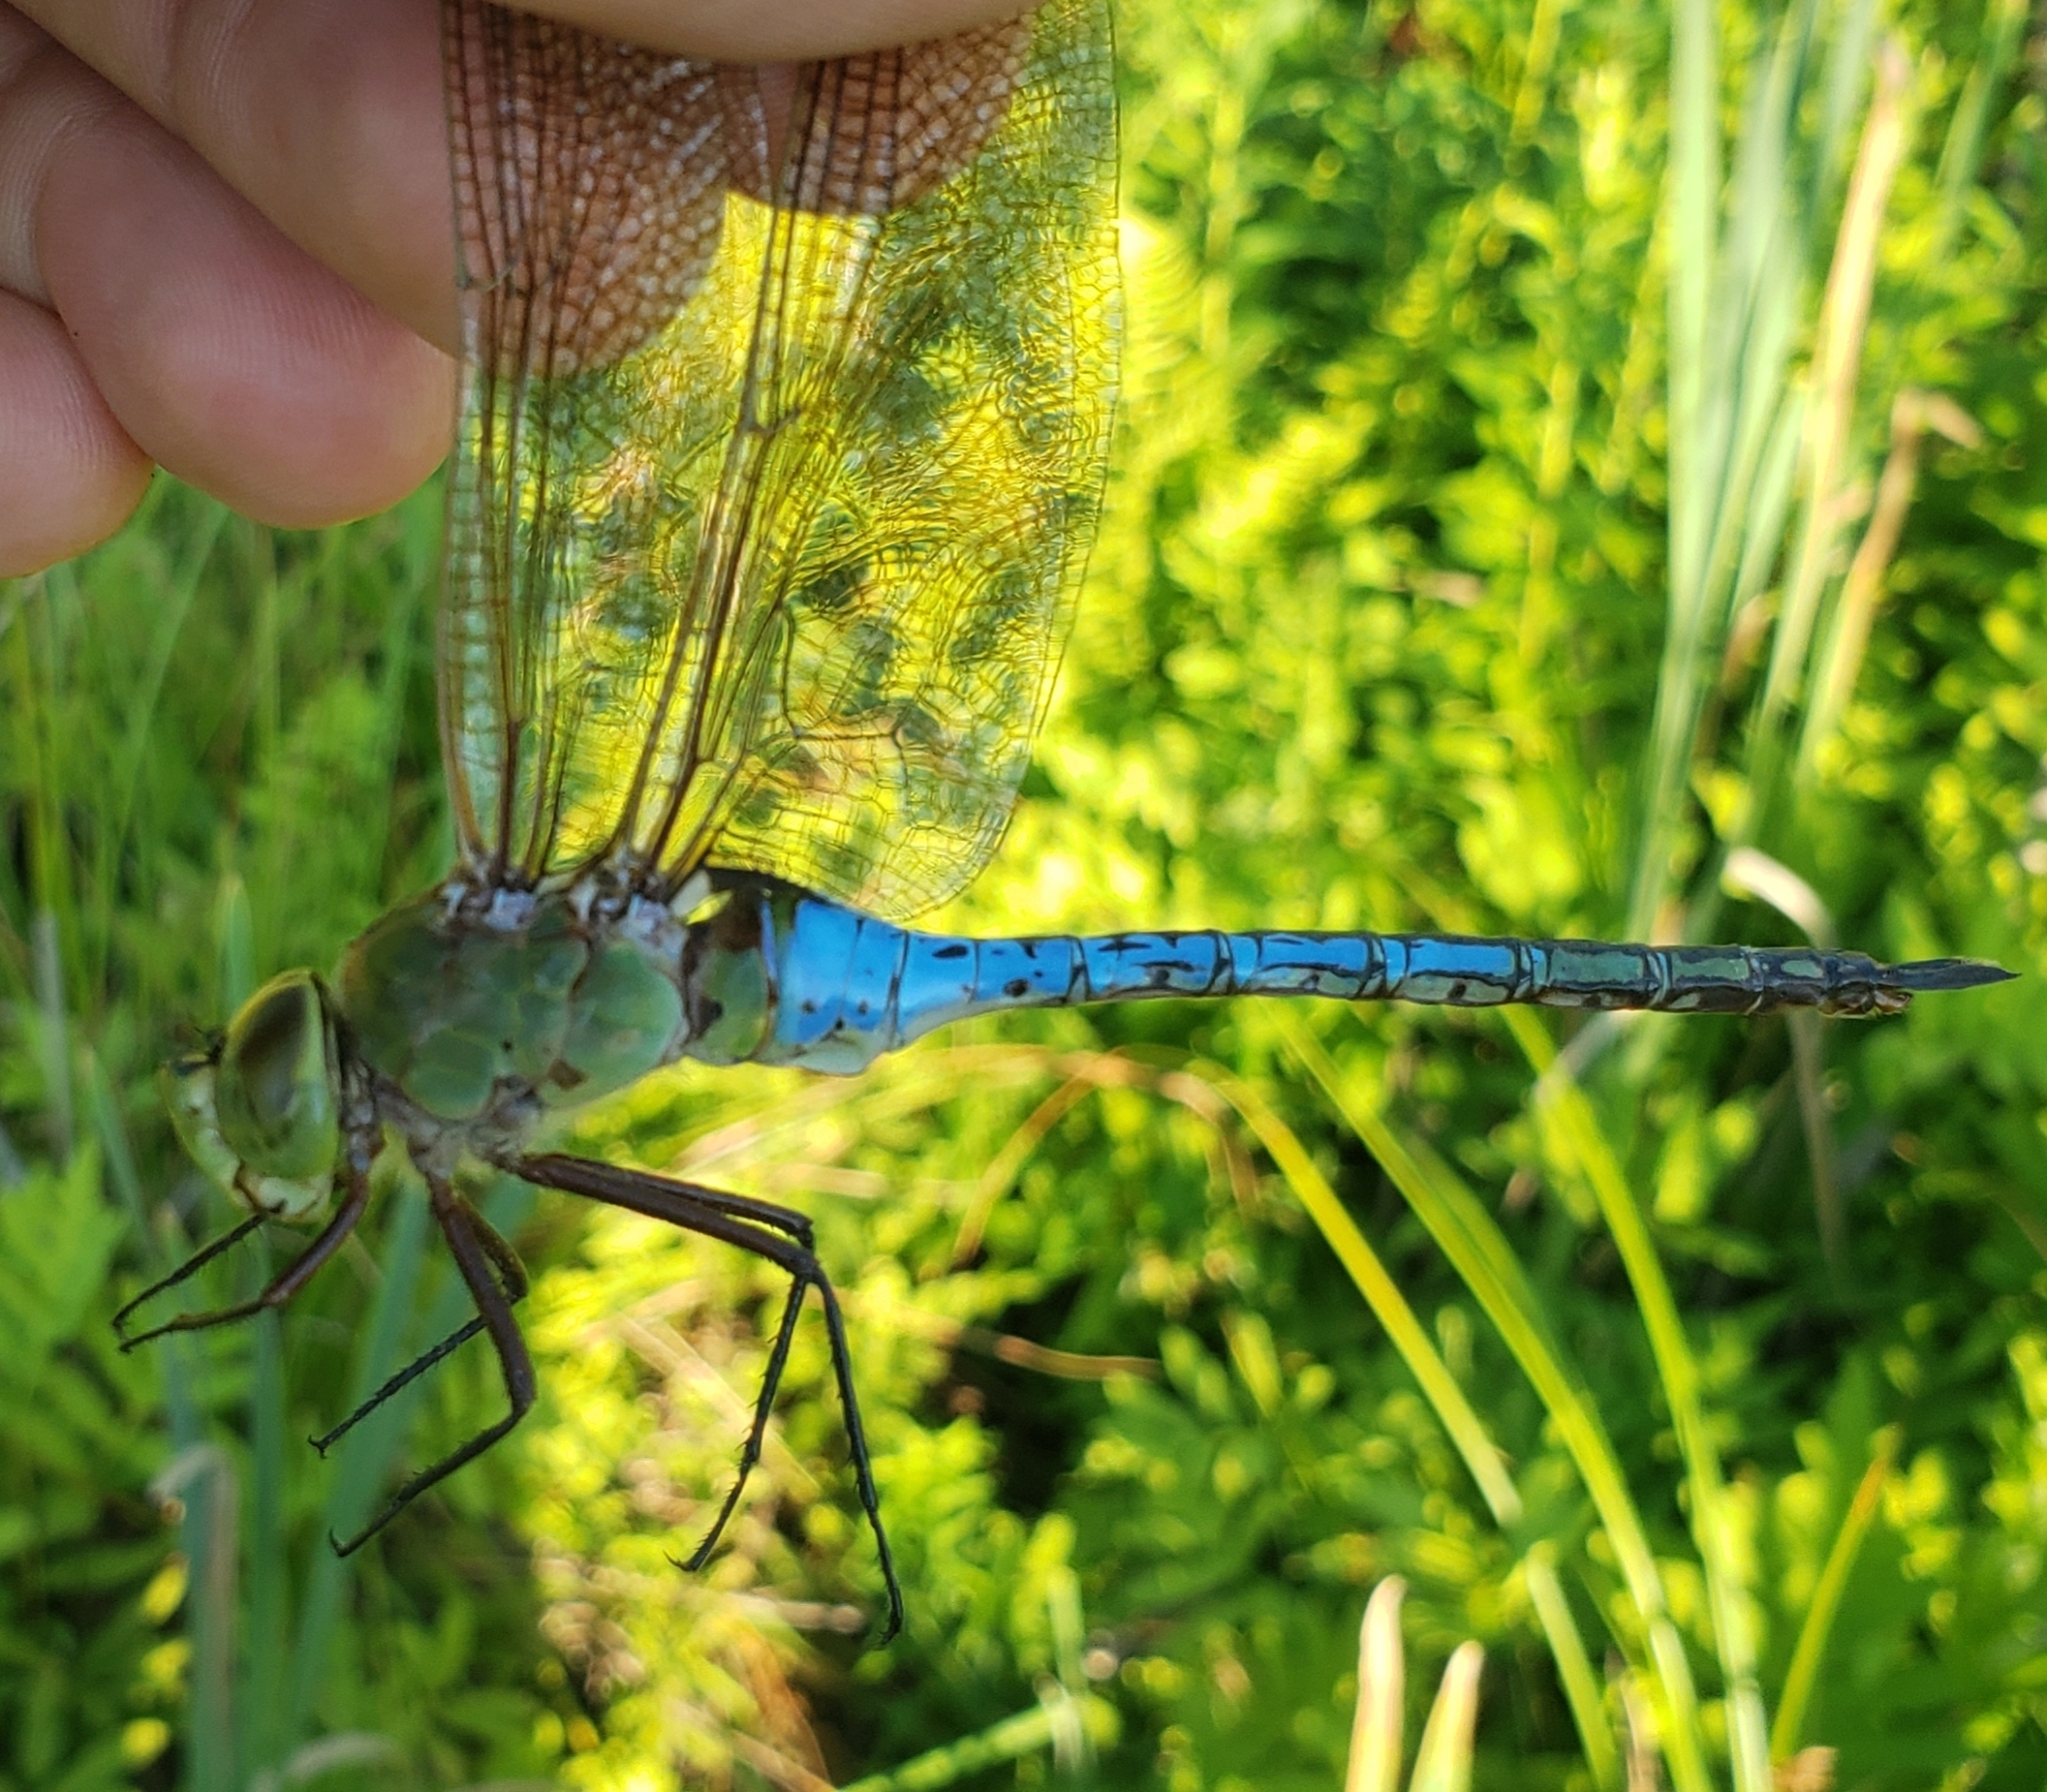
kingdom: Animalia
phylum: Arthropoda
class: Insecta
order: Odonata
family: Aeshnidae
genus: Anax
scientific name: Anax junius
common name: Common green darner
